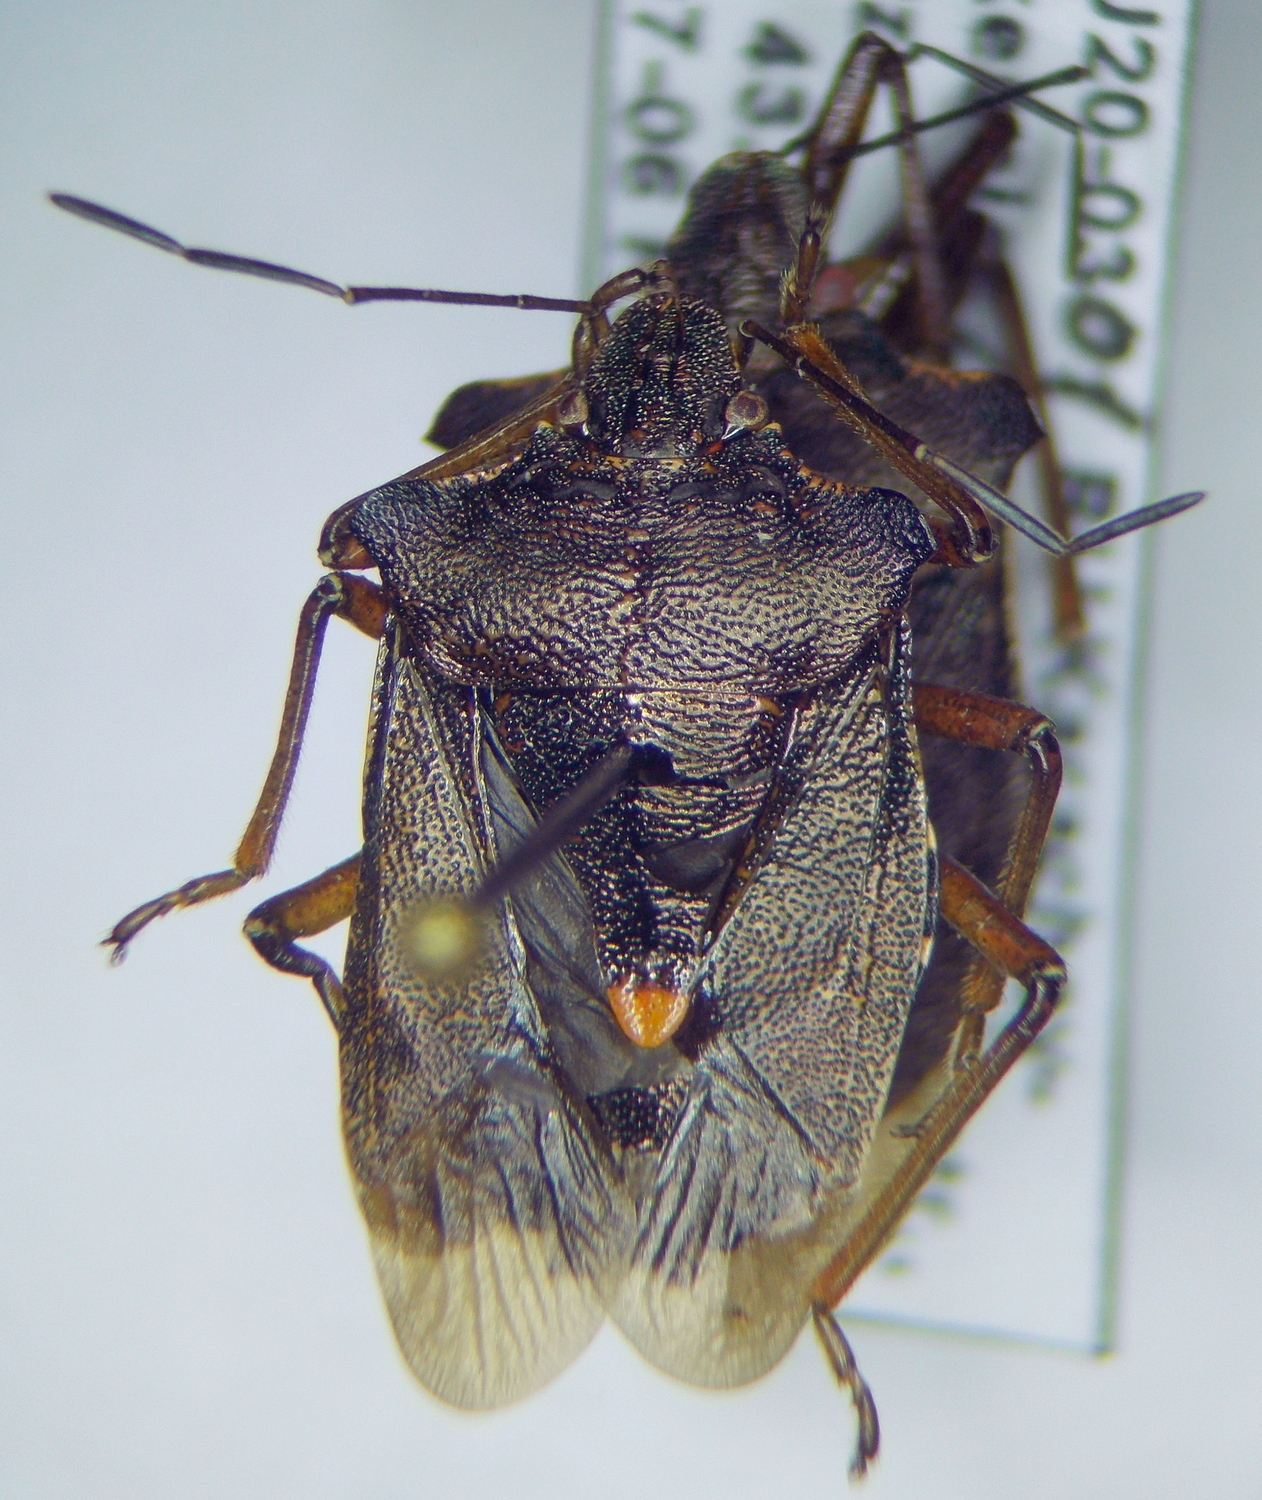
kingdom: Animalia
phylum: Arthropoda
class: Insecta
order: Hemiptera
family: Pentatomidae
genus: Pentatoma
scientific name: Pentatoma rufipes
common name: Forest bug
